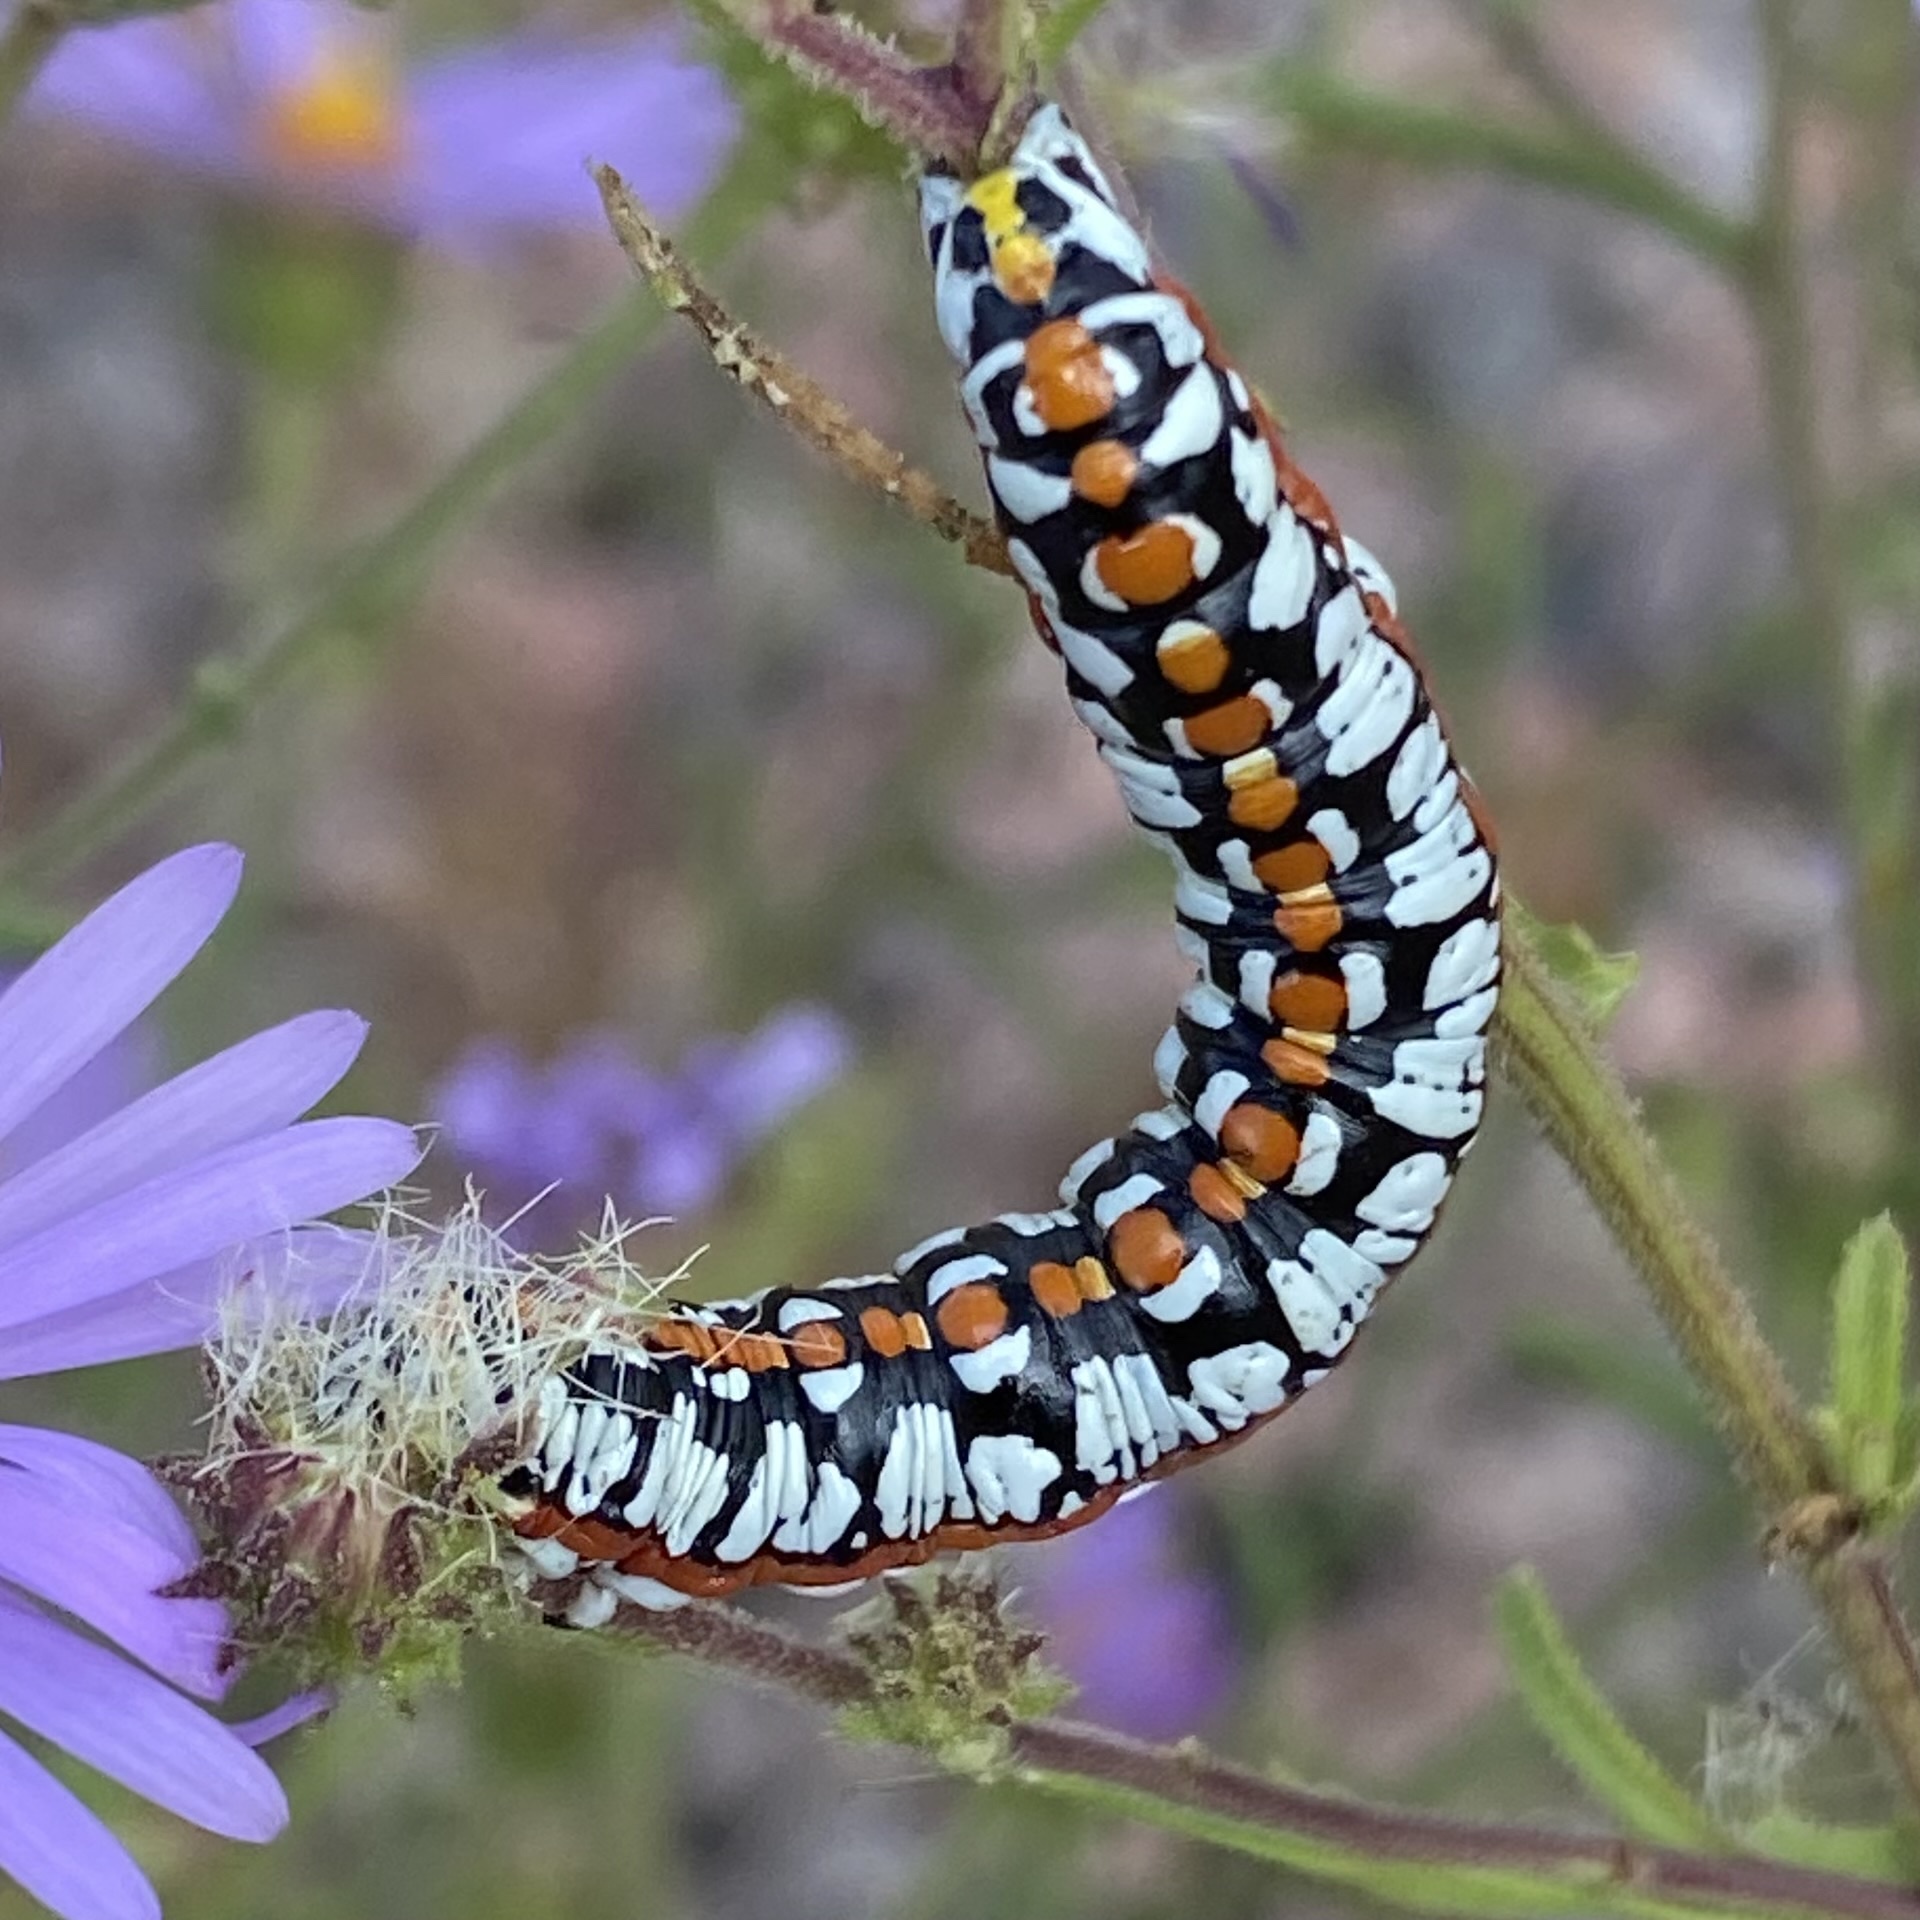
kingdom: Animalia
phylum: Arthropoda
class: Insecta
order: Lepidoptera
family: Noctuidae
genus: Cucullia
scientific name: Cucullia dorsalis
